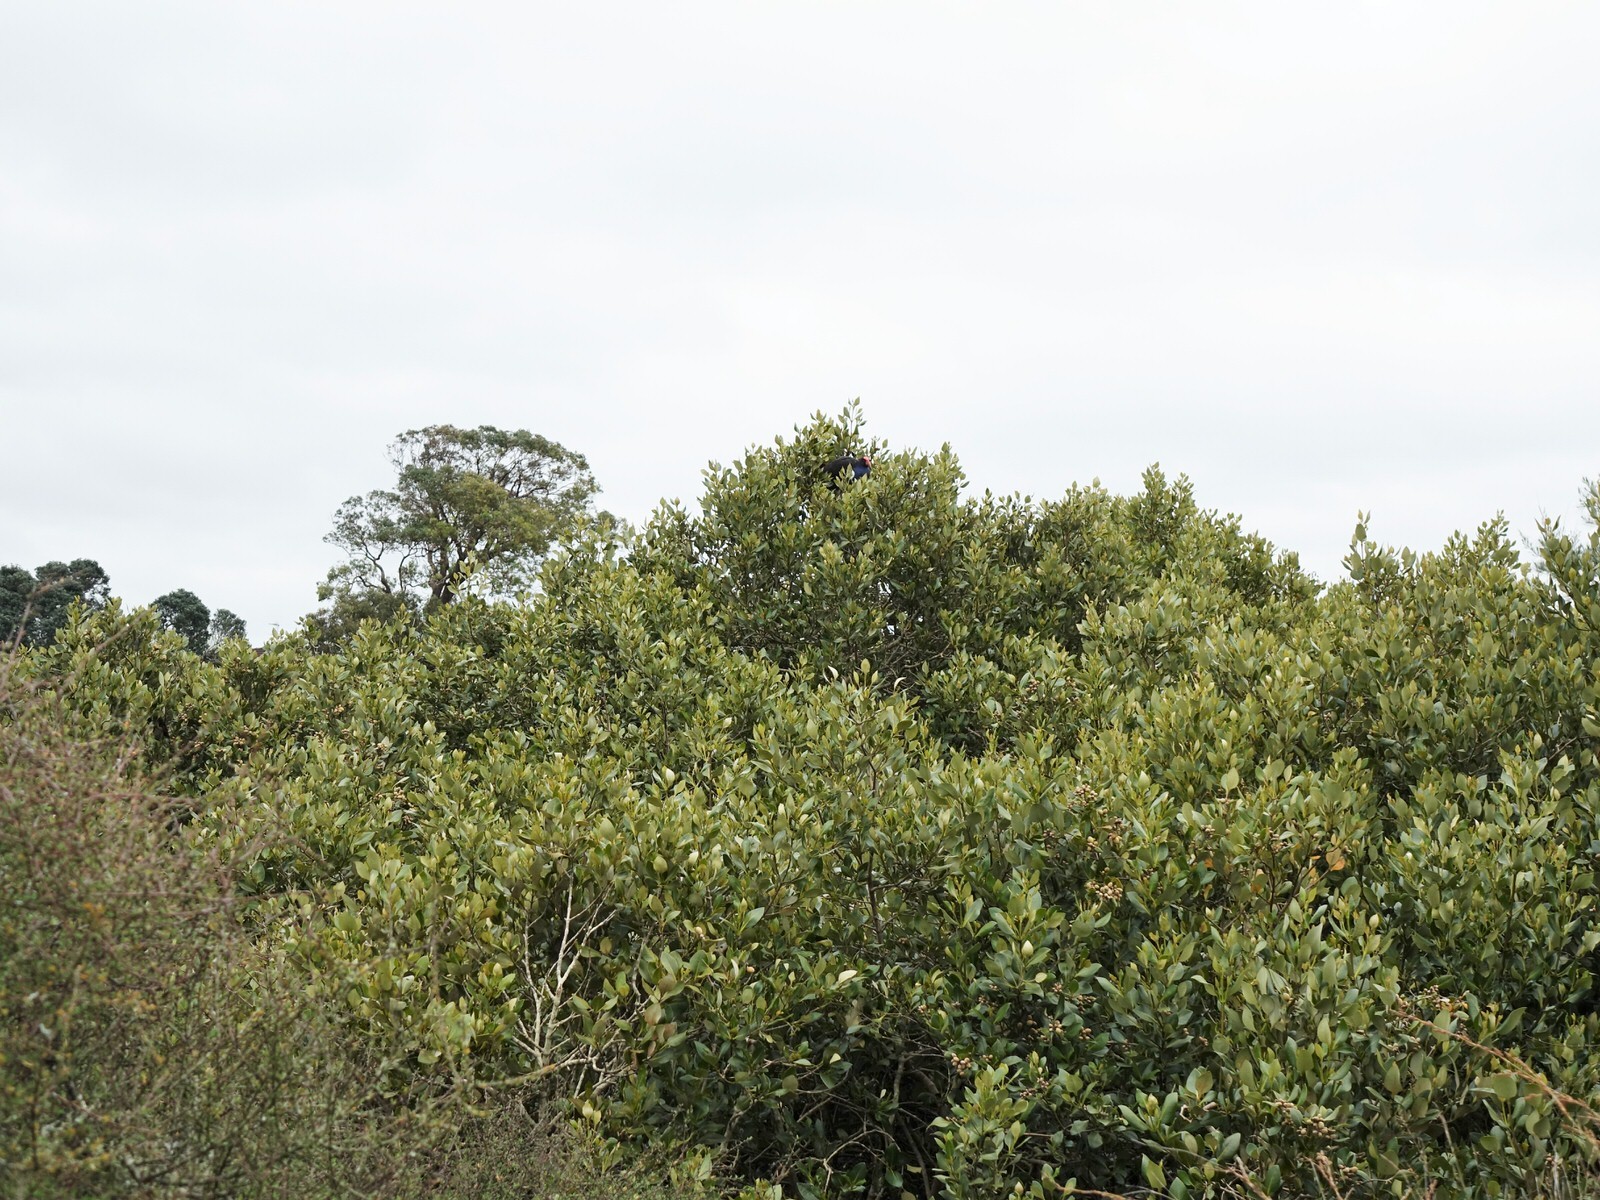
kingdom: Animalia
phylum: Chordata
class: Aves
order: Gruiformes
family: Rallidae
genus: Porphyrio
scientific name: Porphyrio melanotus
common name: Australasian swamphen
